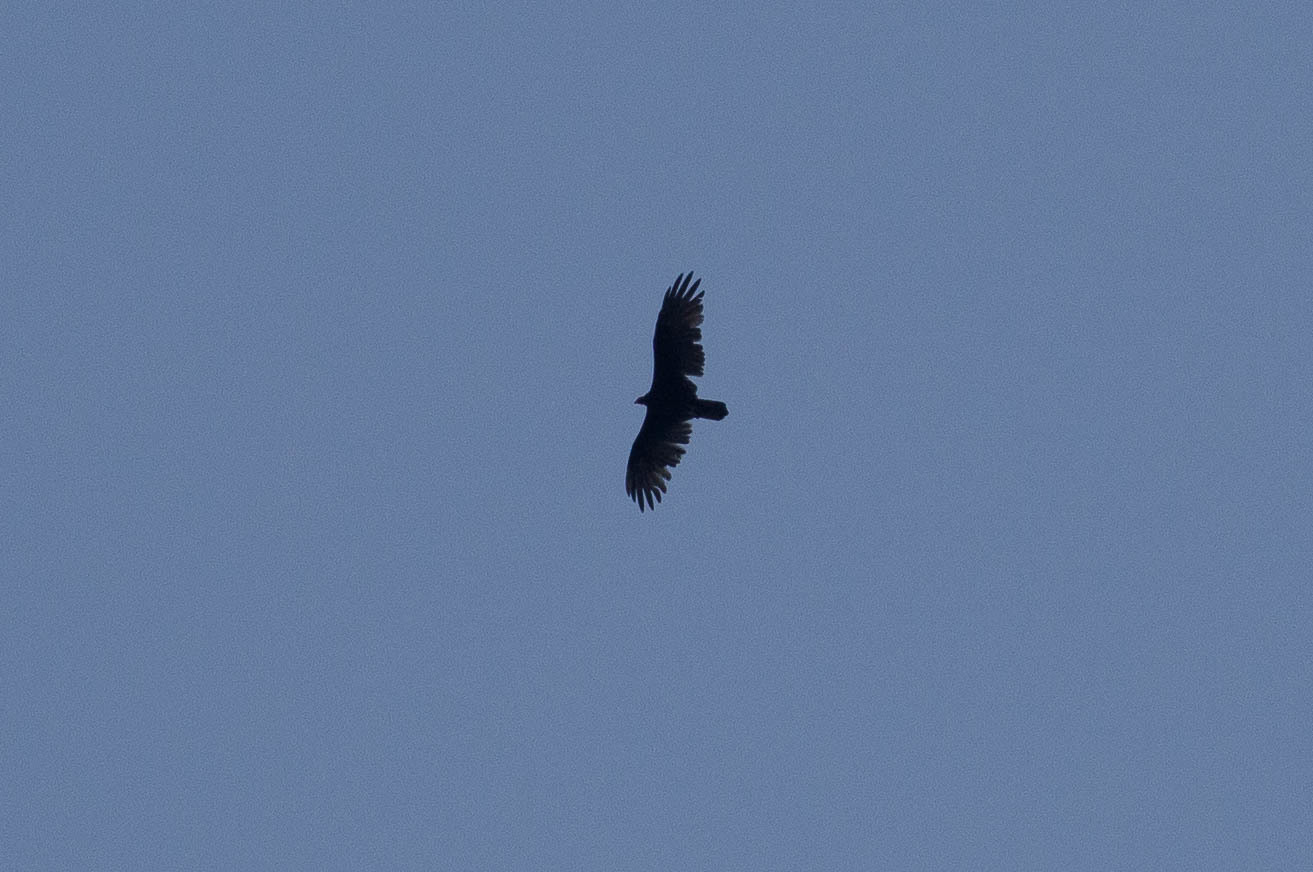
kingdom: Animalia
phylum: Chordata
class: Aves
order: Accipitriformes
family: Cathartidae
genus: Cathartes
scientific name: Cathartes aura
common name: Turkey vulture
